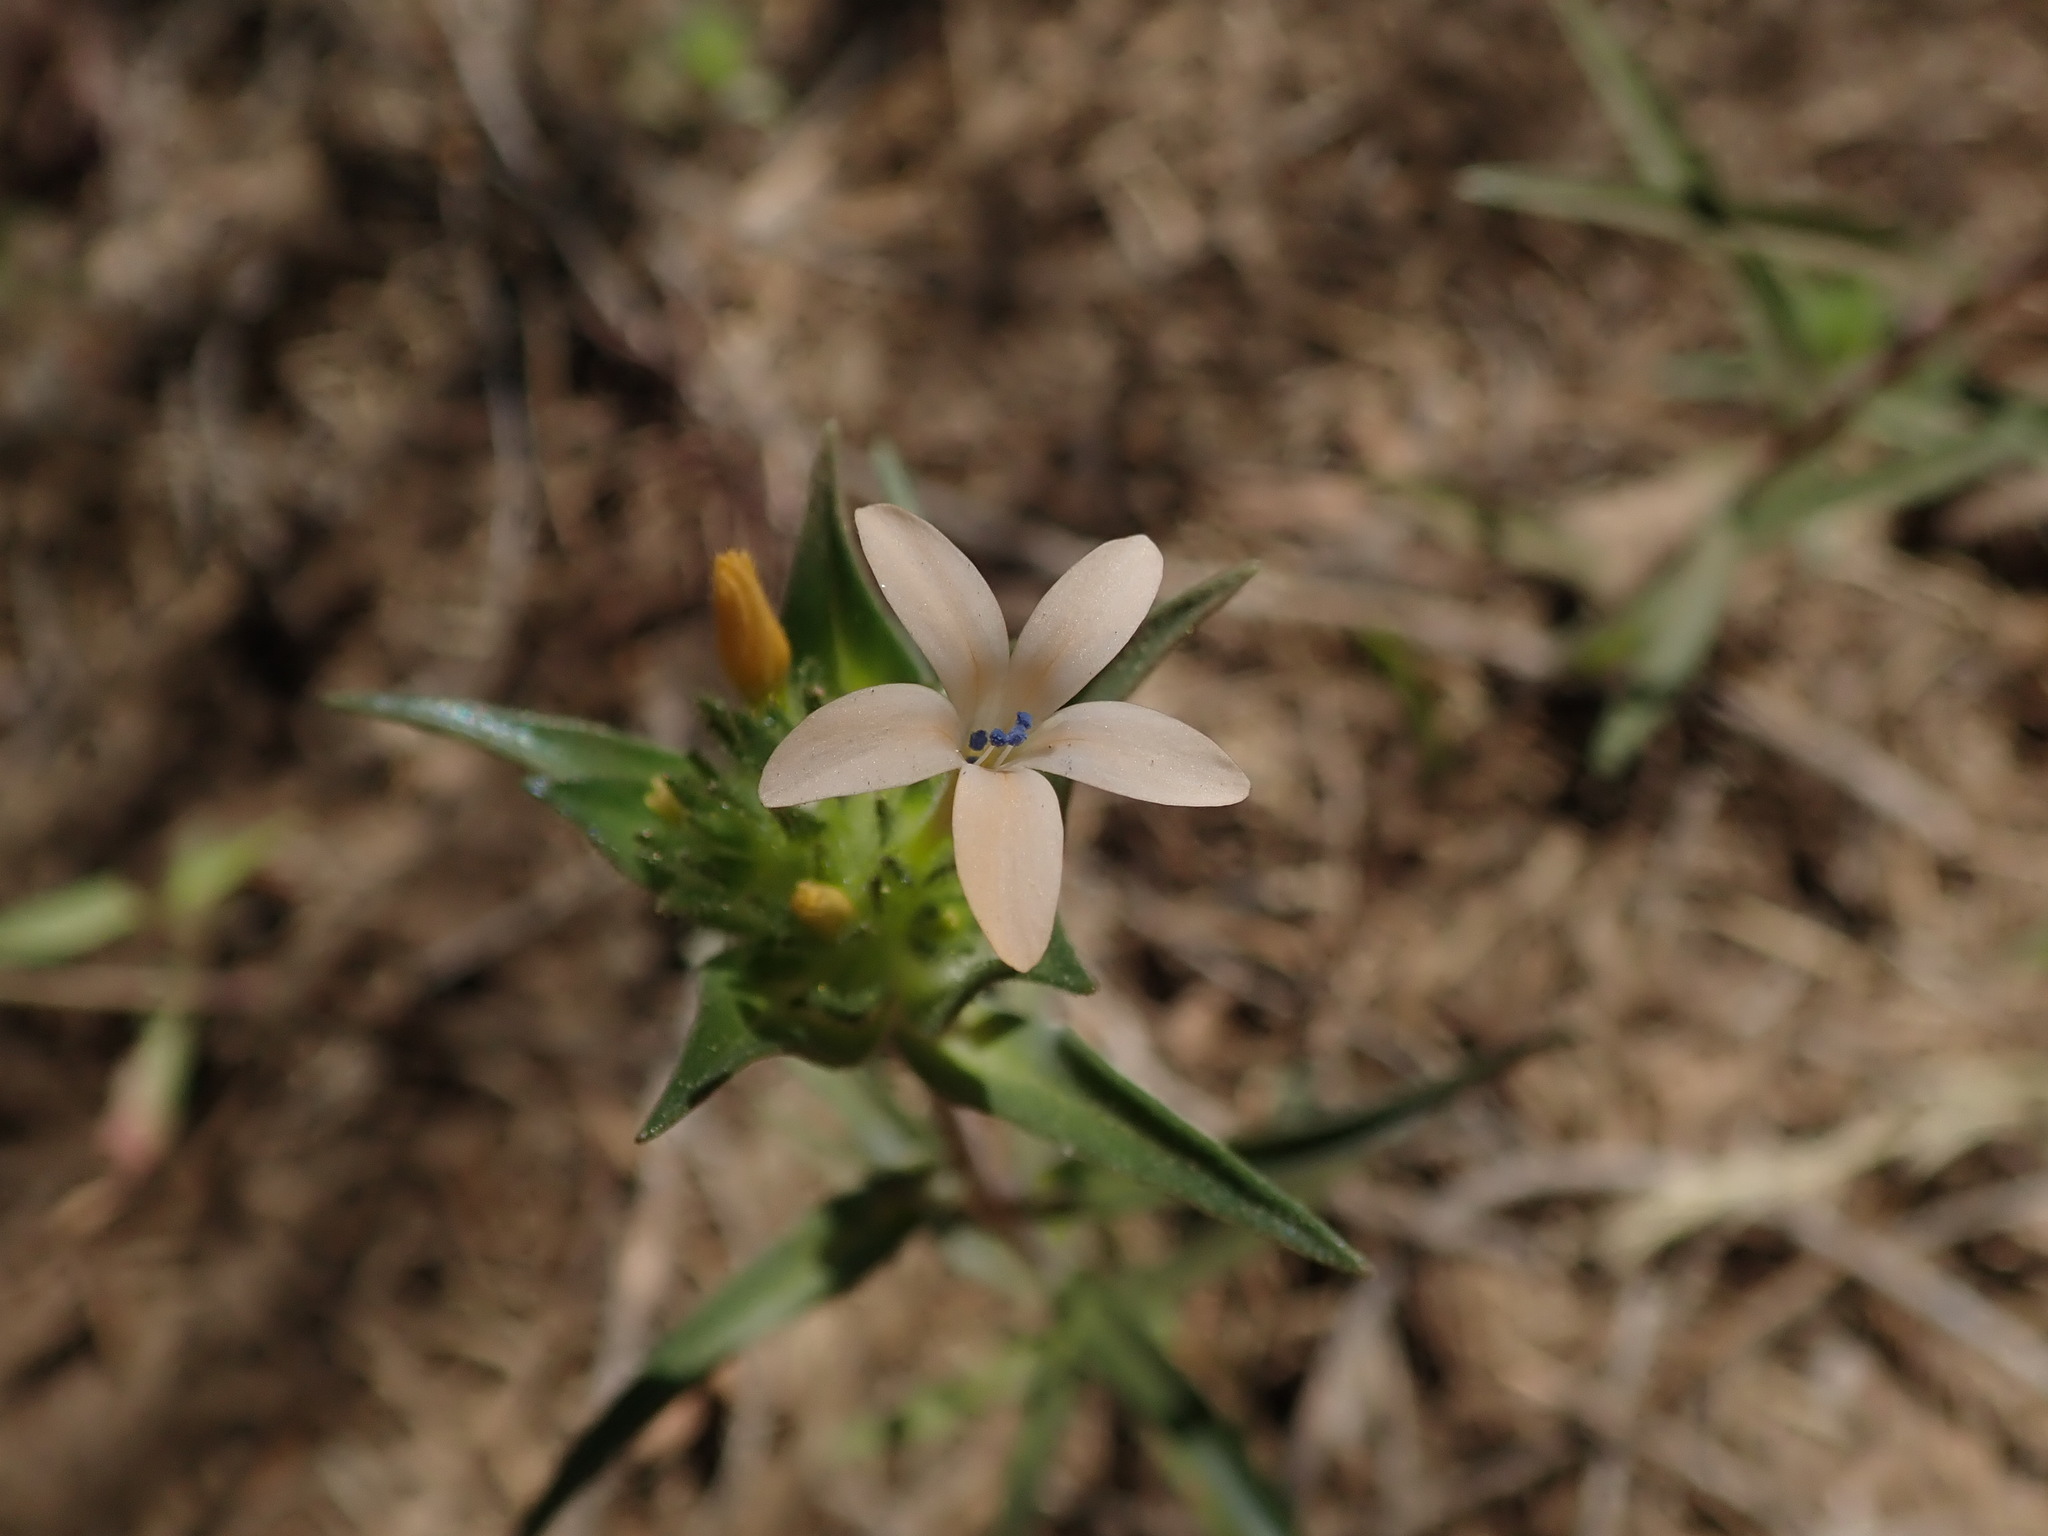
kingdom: Plantae
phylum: Tracheophyta
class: Magnoliopsida
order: Ericales
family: Polemoniaceae
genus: Collomia
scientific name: Collomia grandiflora
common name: California strawflower
